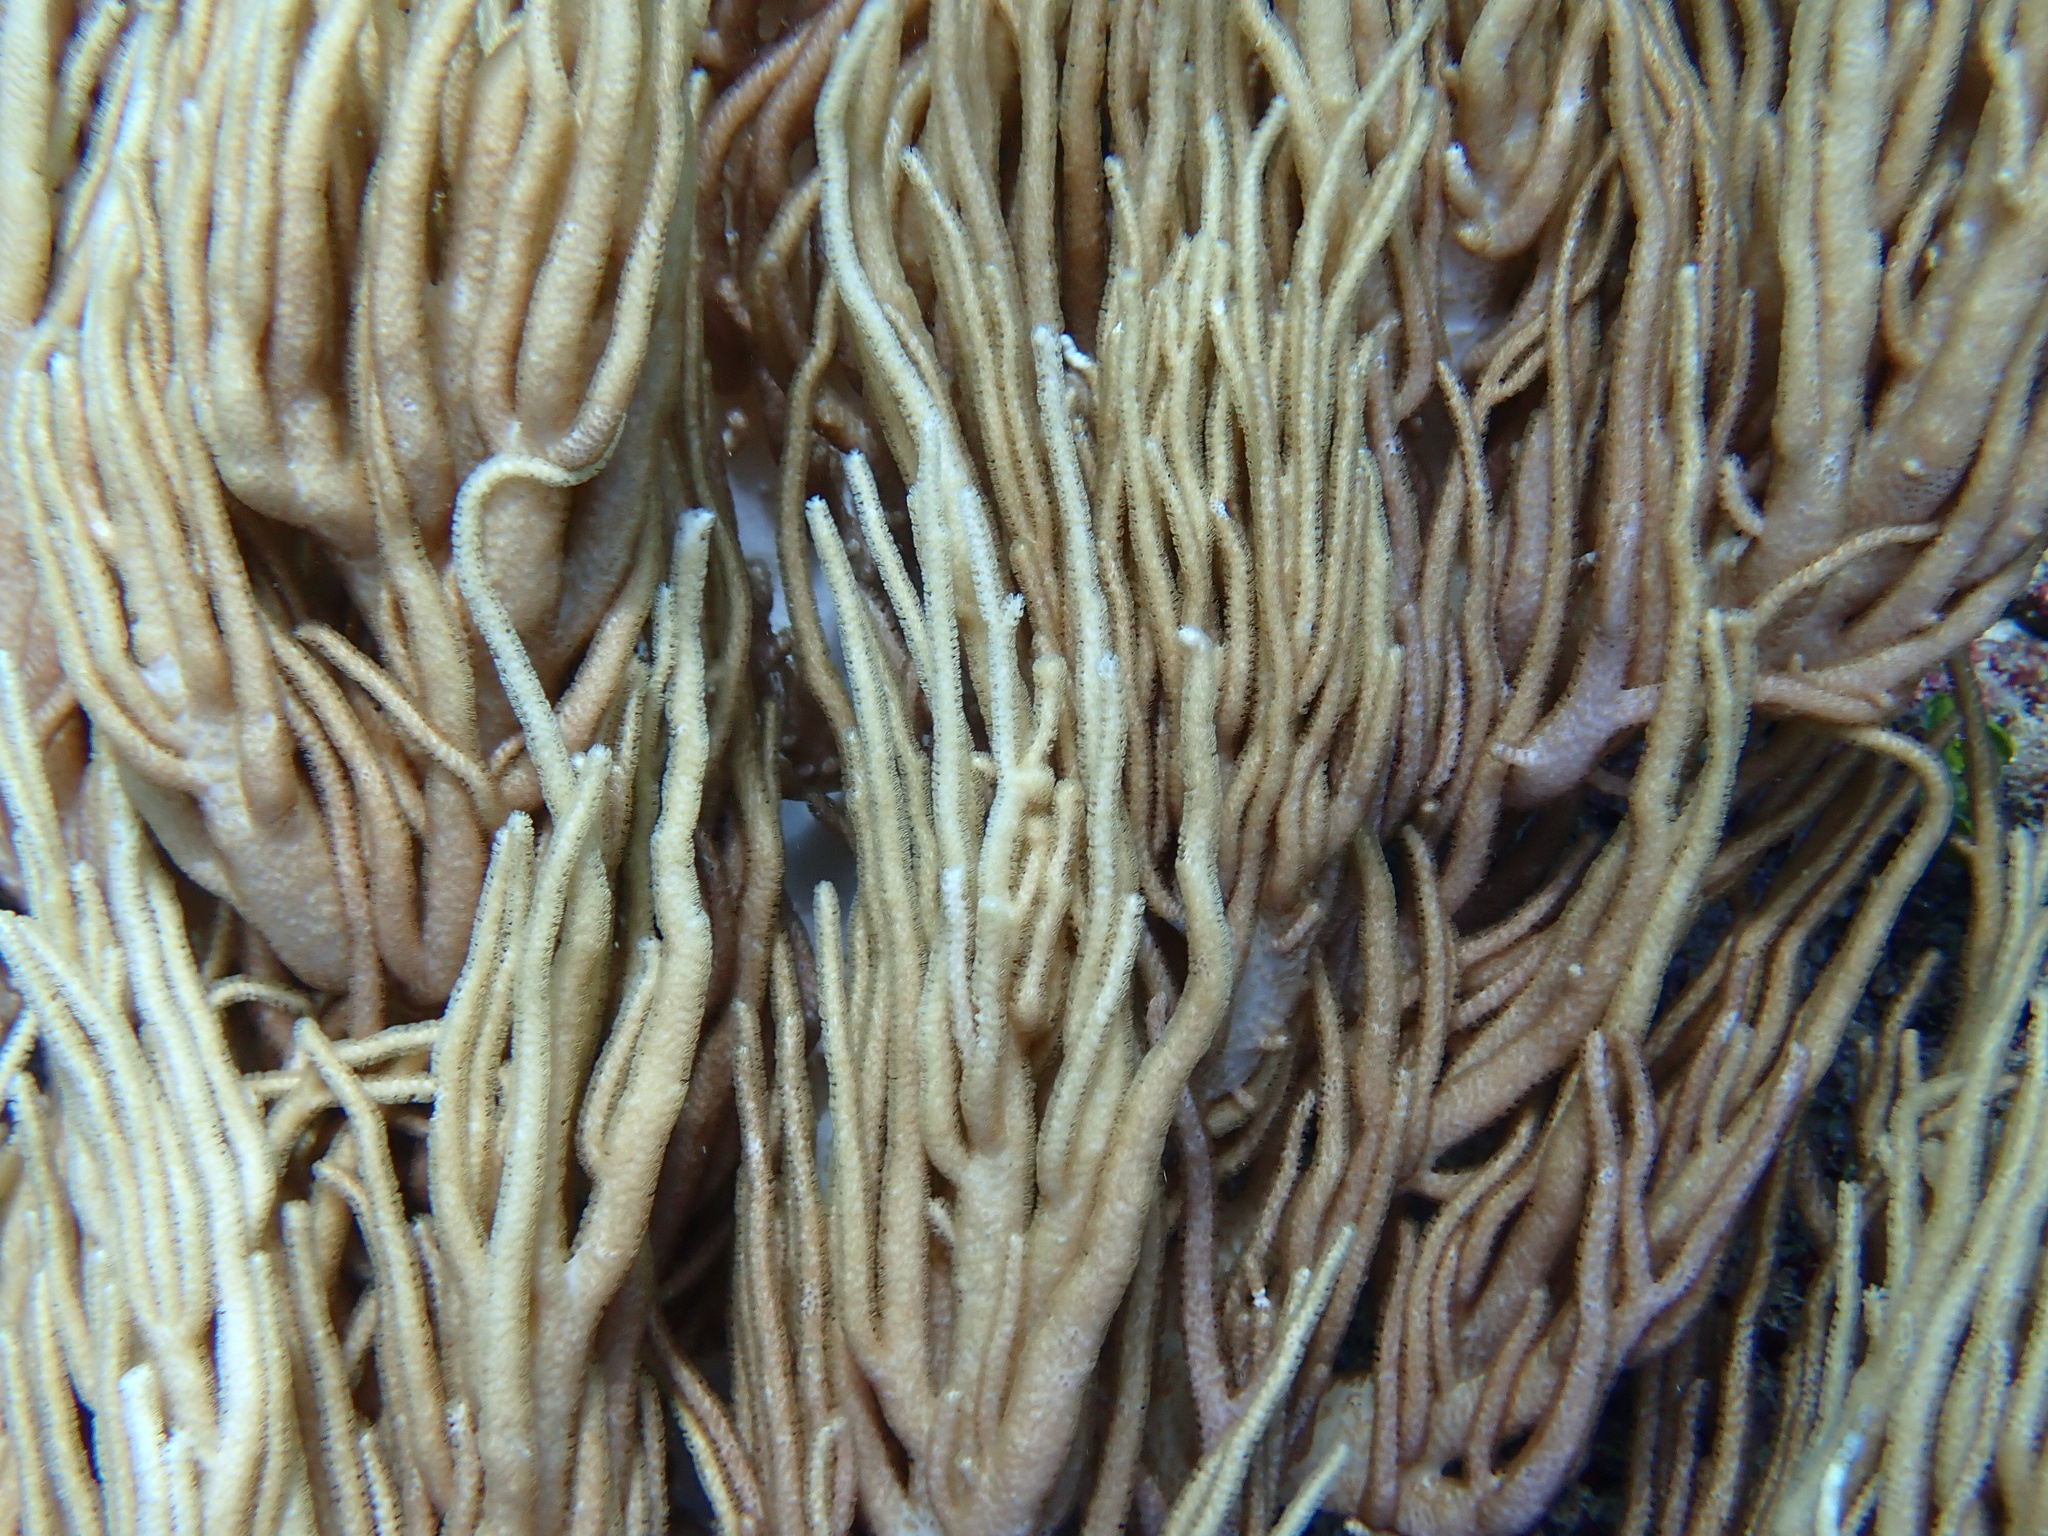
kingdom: Animalia
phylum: Cnidaria
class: Anthozoa
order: Malacalcyonacea
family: Sarcophytidae
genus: Sclerophytum
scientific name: Sclerophytum flexibile
